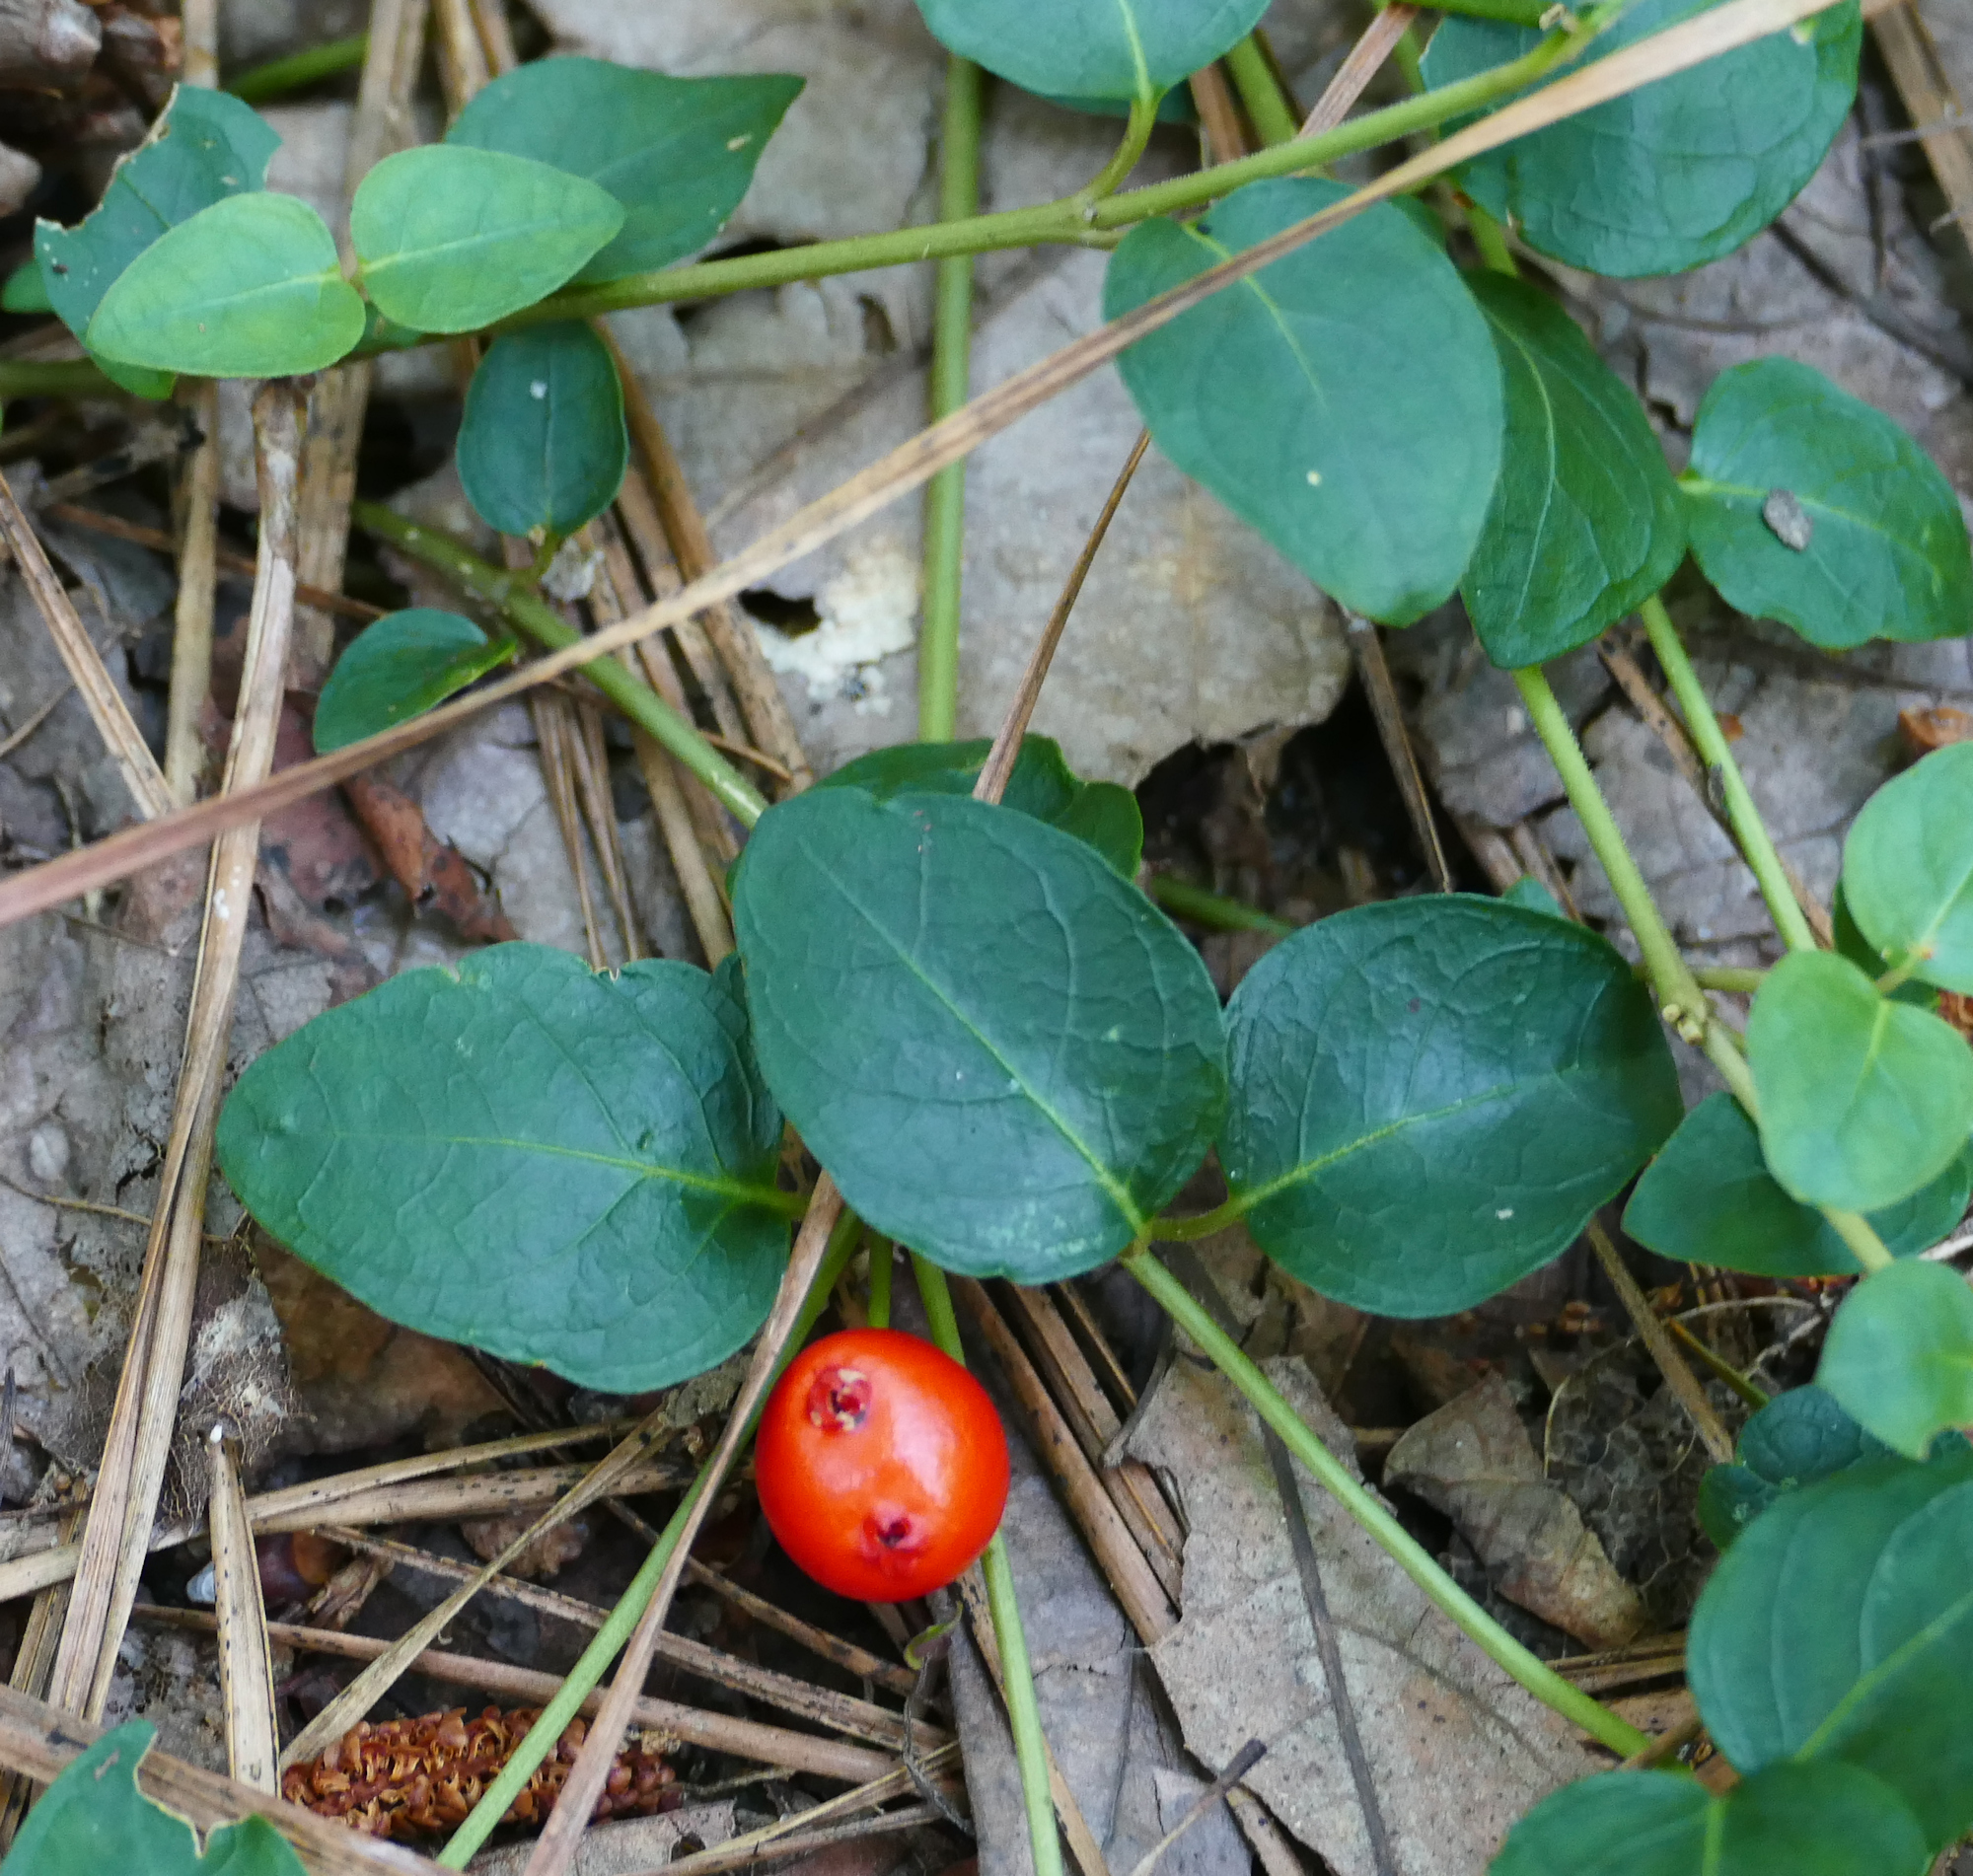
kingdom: Plantae
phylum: Tracheophyta
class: Magnoliopsida
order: Gentianales
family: Rubiaceae
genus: Mitchella
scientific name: Mitchella repens
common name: Partridge-berry
